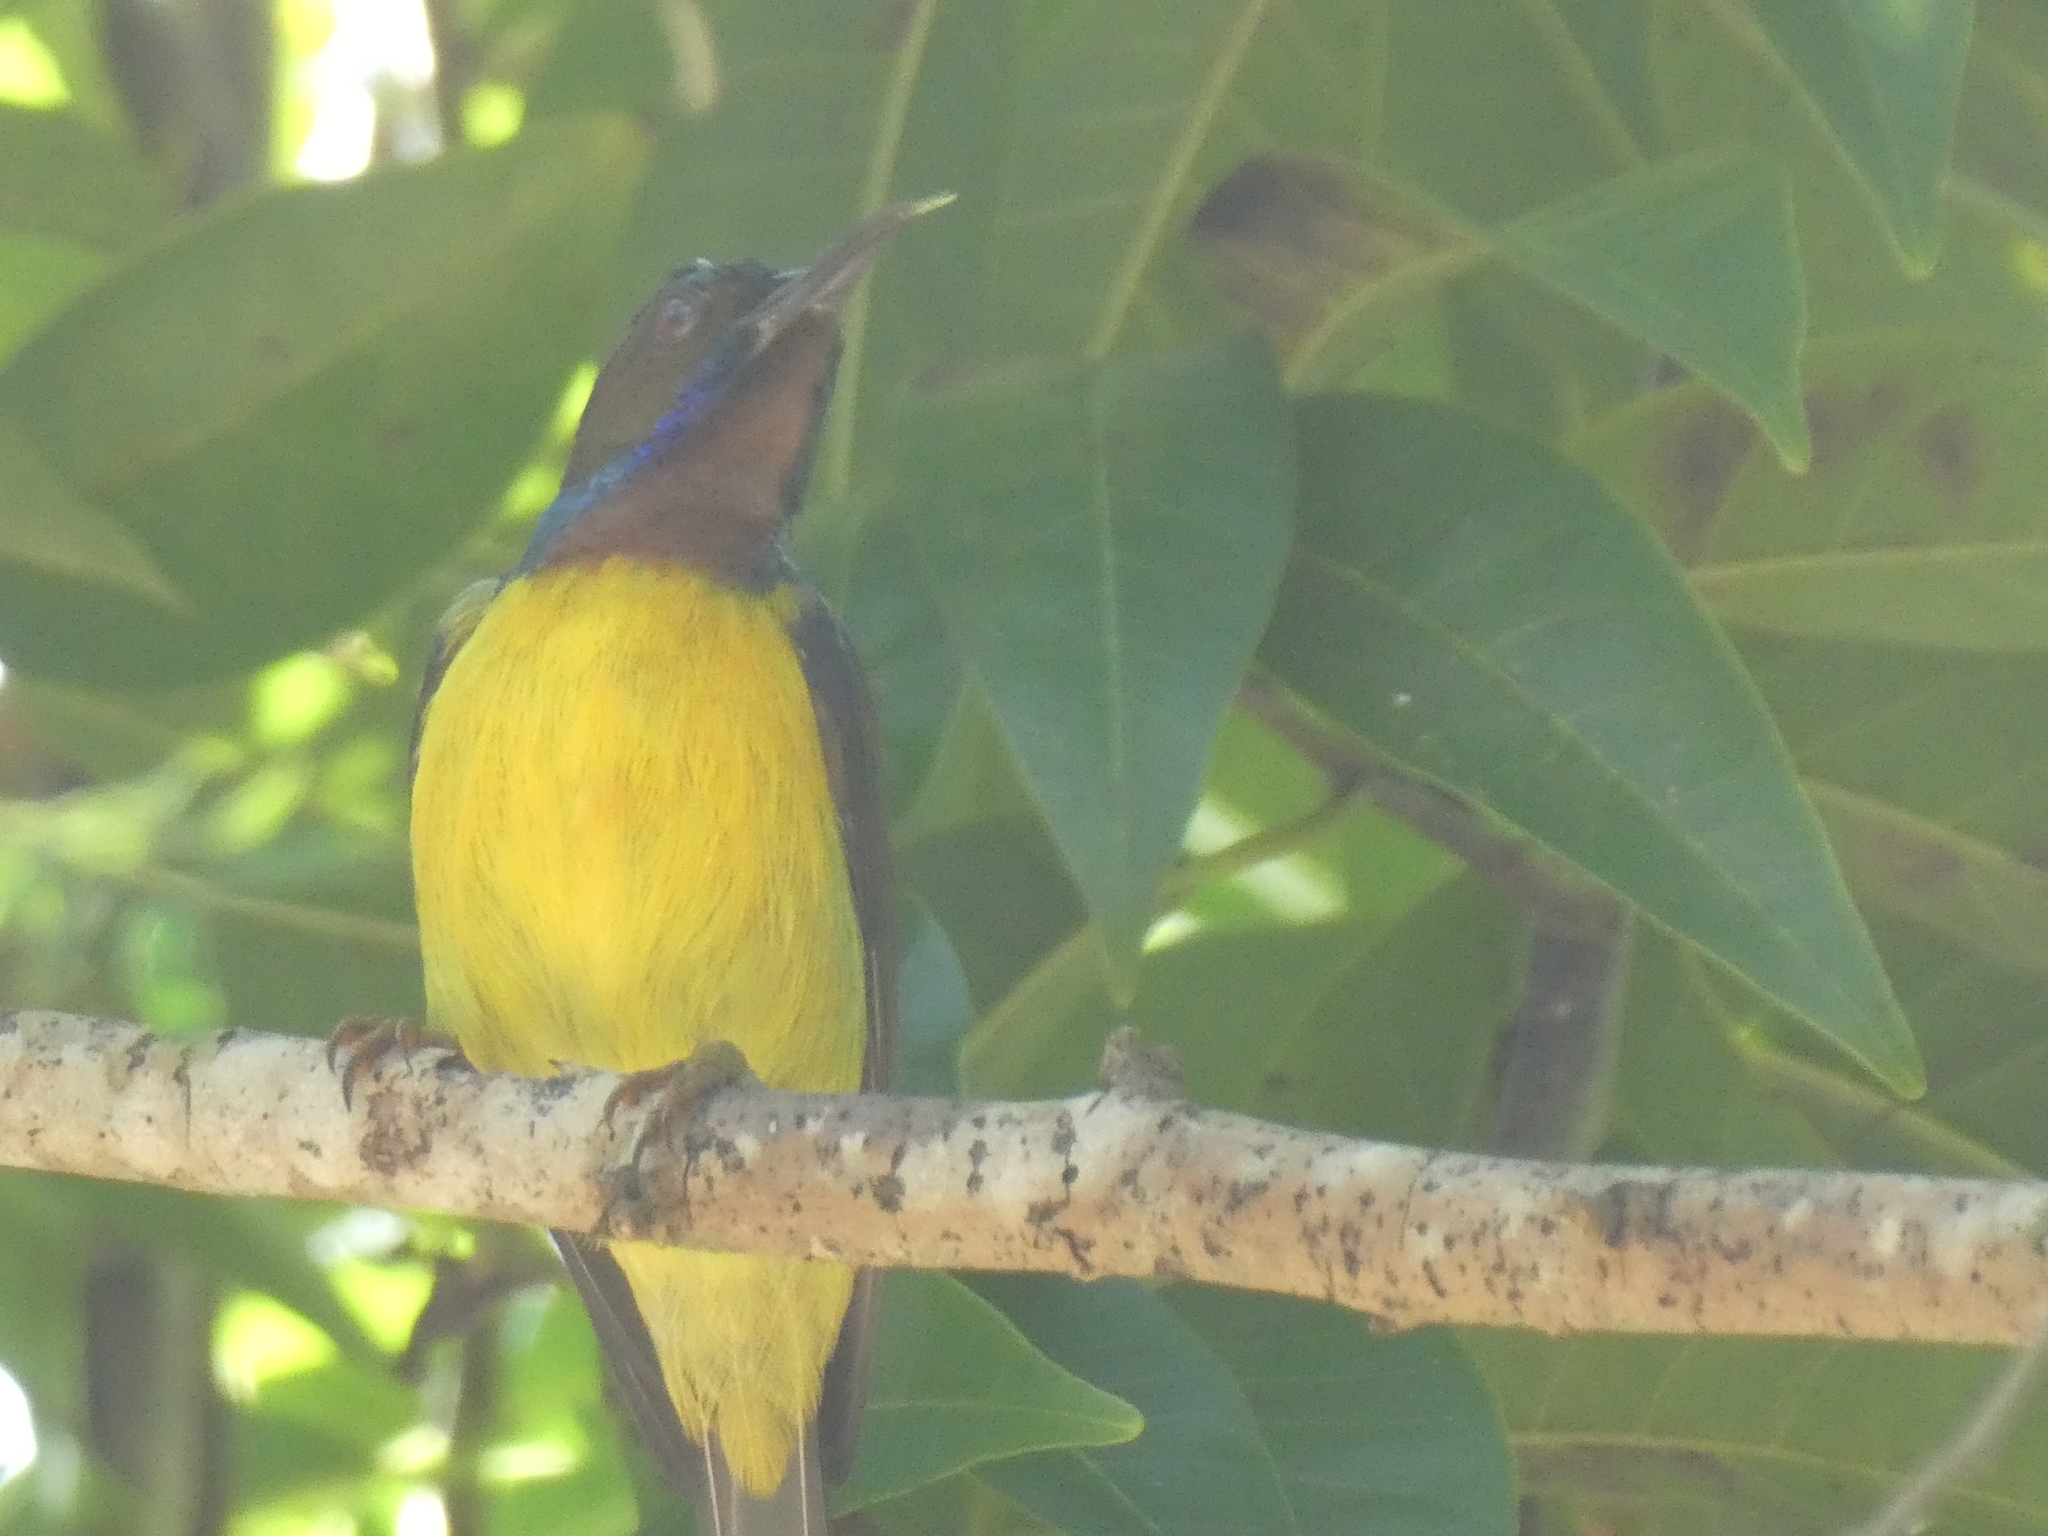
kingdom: Animalia
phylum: Chordata
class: Aves
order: Passeriformes
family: Nectariniidae
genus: Anthreptes
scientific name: Anthreptes malacensis
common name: Brown-throated sunbird
